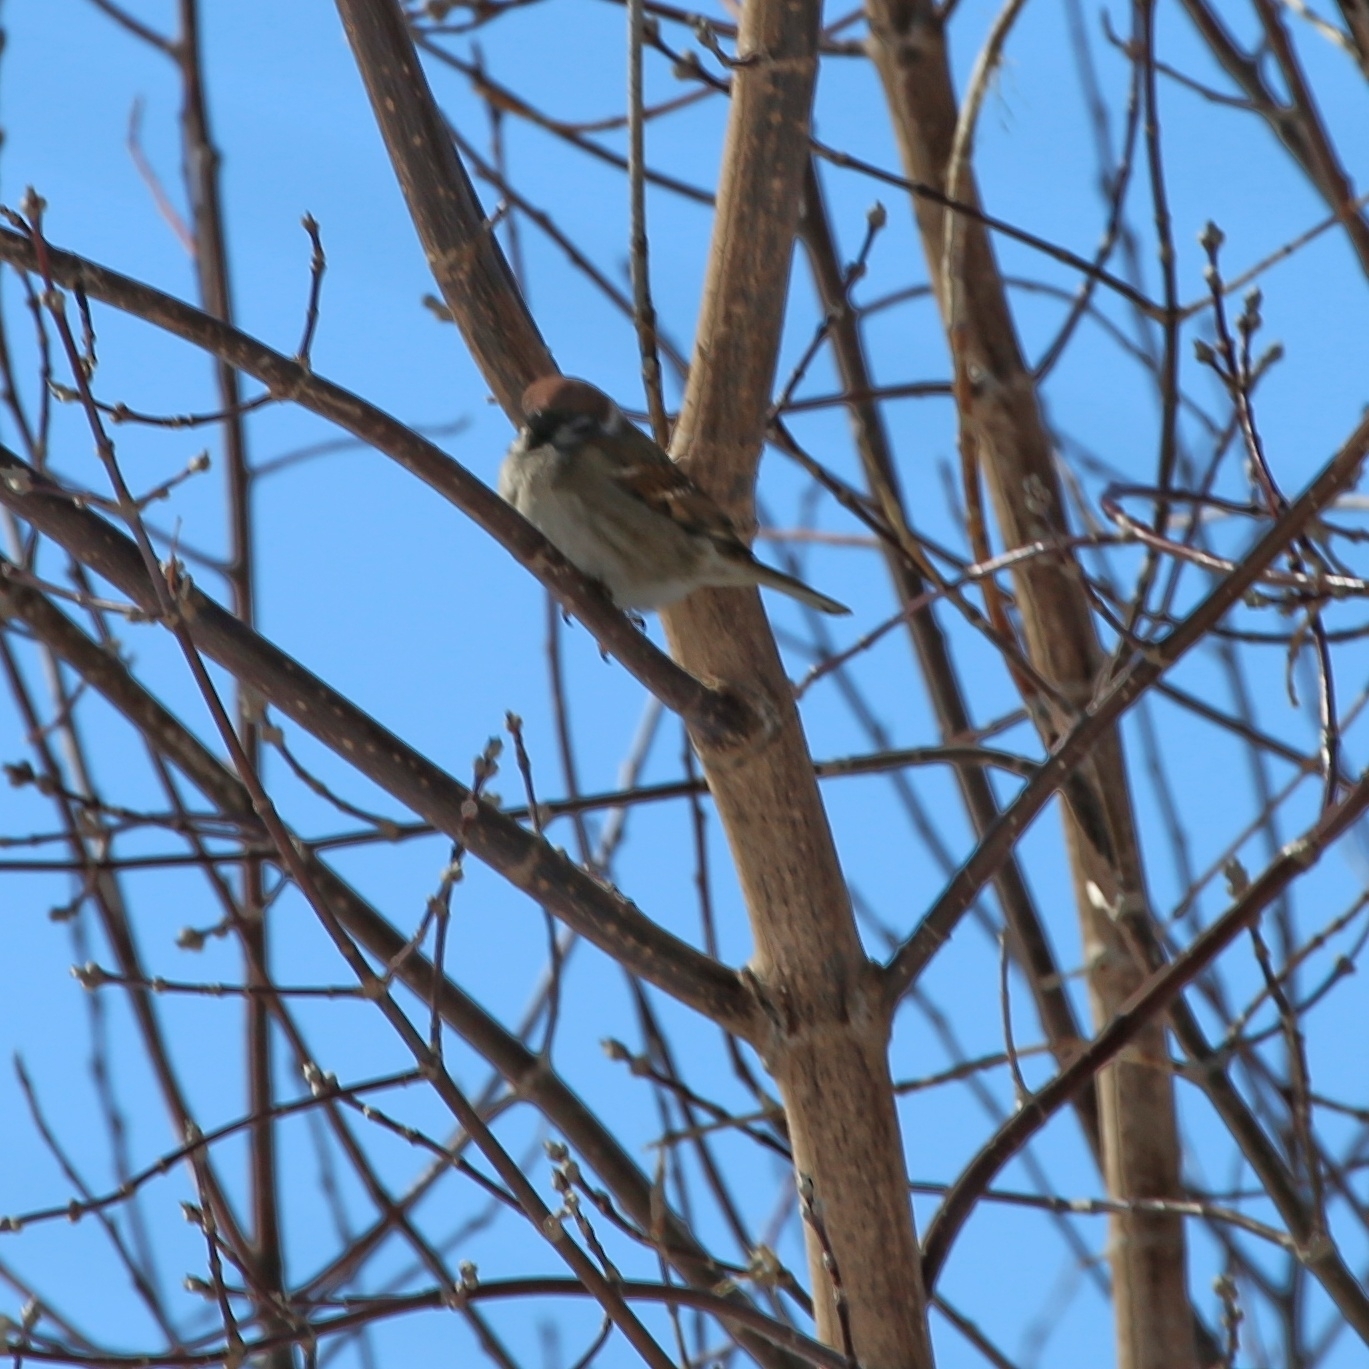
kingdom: Animalia
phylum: Chordata
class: Aves
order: Passeriformes
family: Passeridae
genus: Passer
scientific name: Passer montanus
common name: Eurasian tree sparrow
